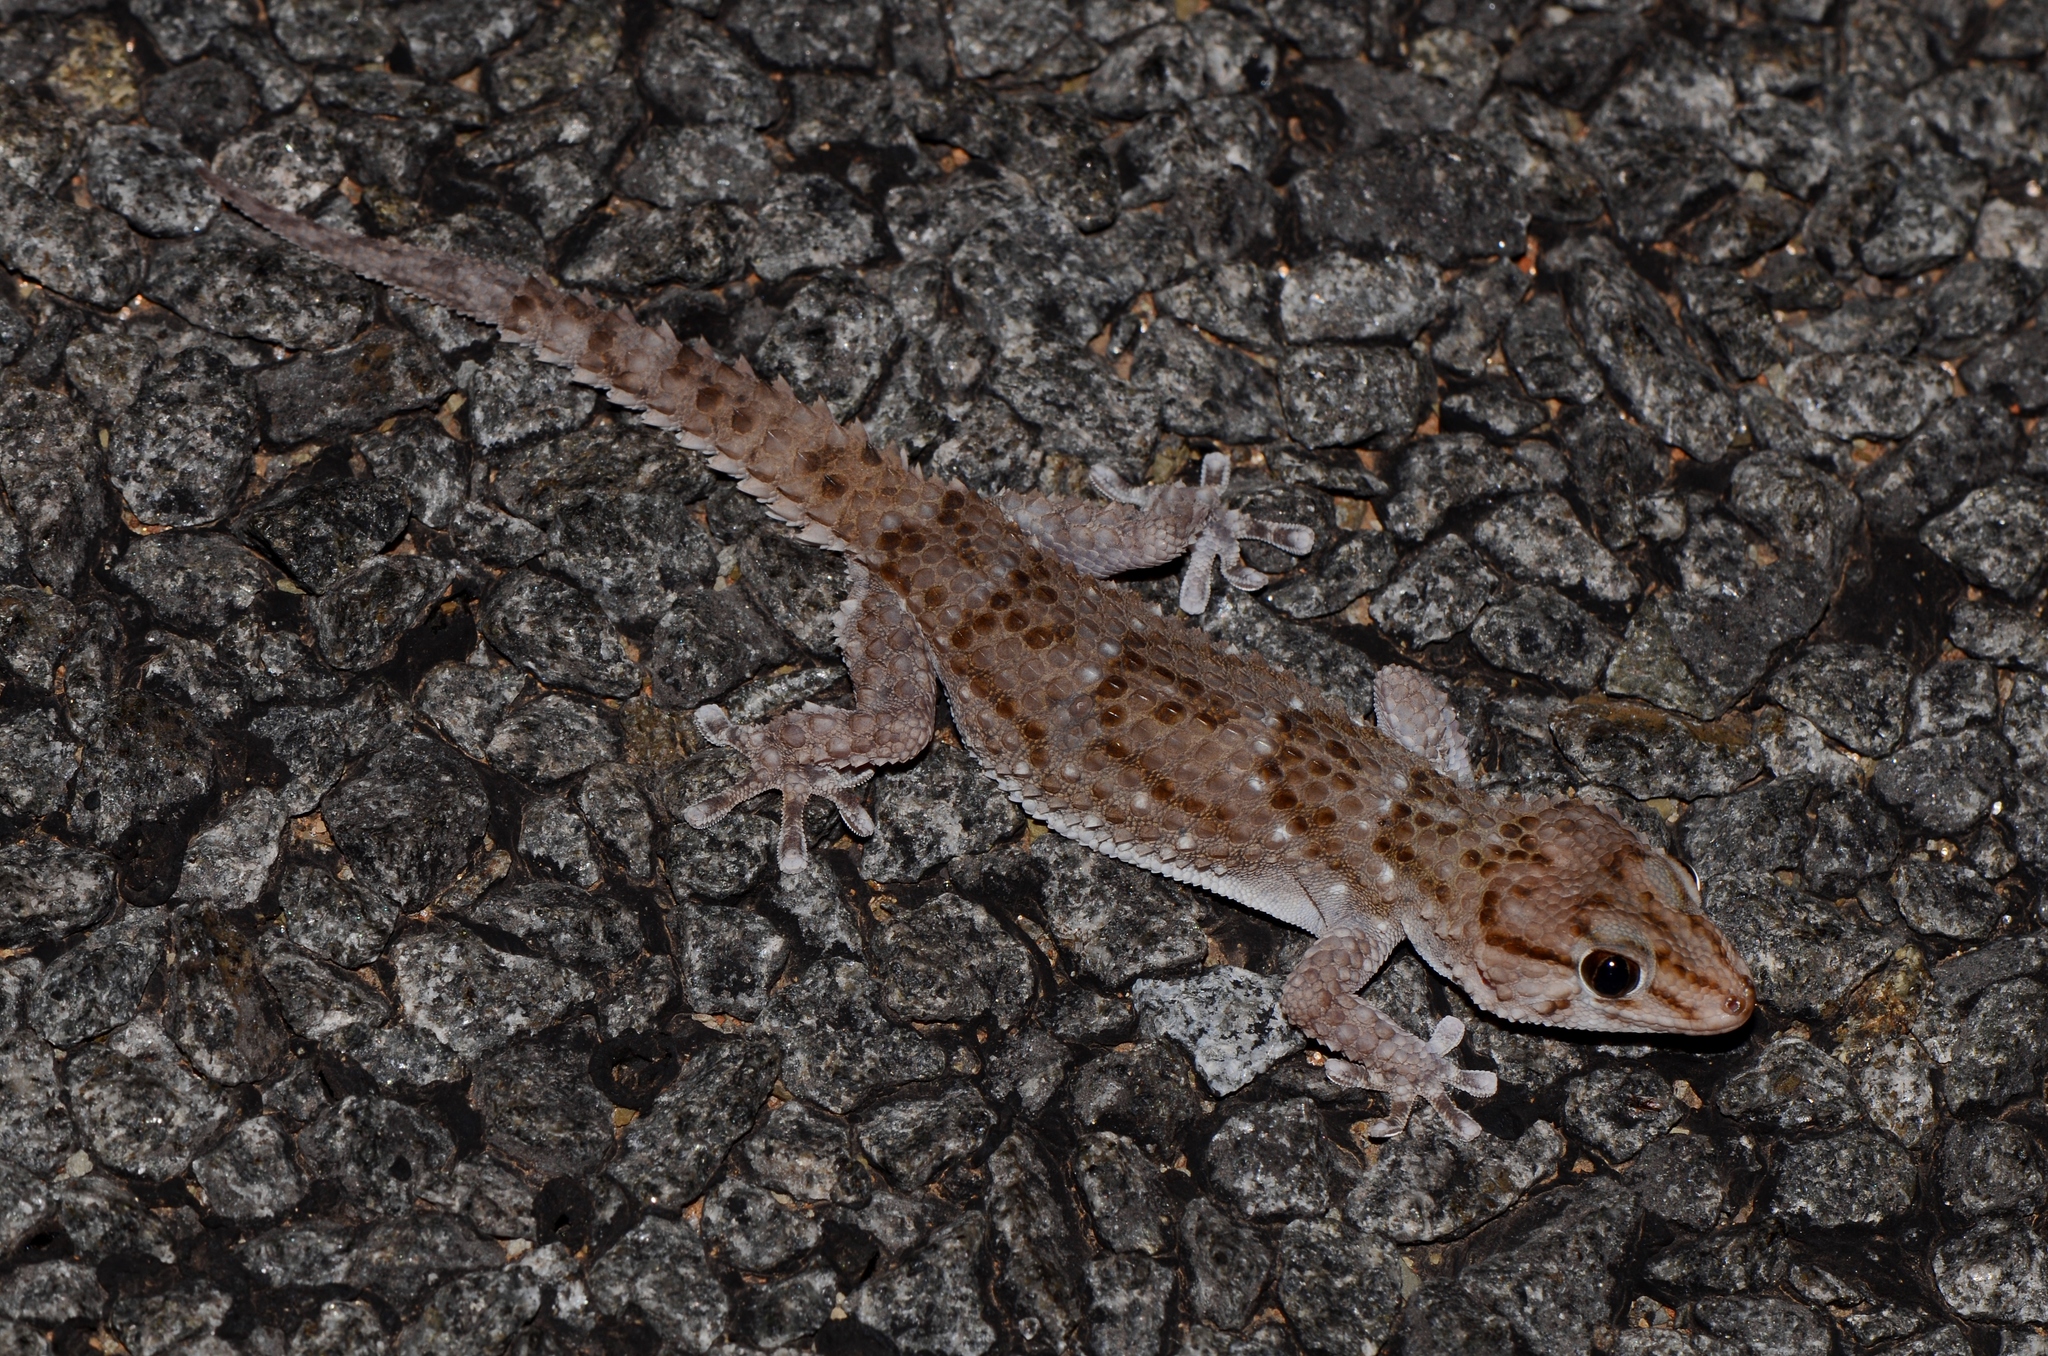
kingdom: Animalia
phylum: Chordata
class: Squamata
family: Gekkonidae
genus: Chondrodactylus
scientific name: Chondrodactylus bibronii
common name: Bibron's gecko
